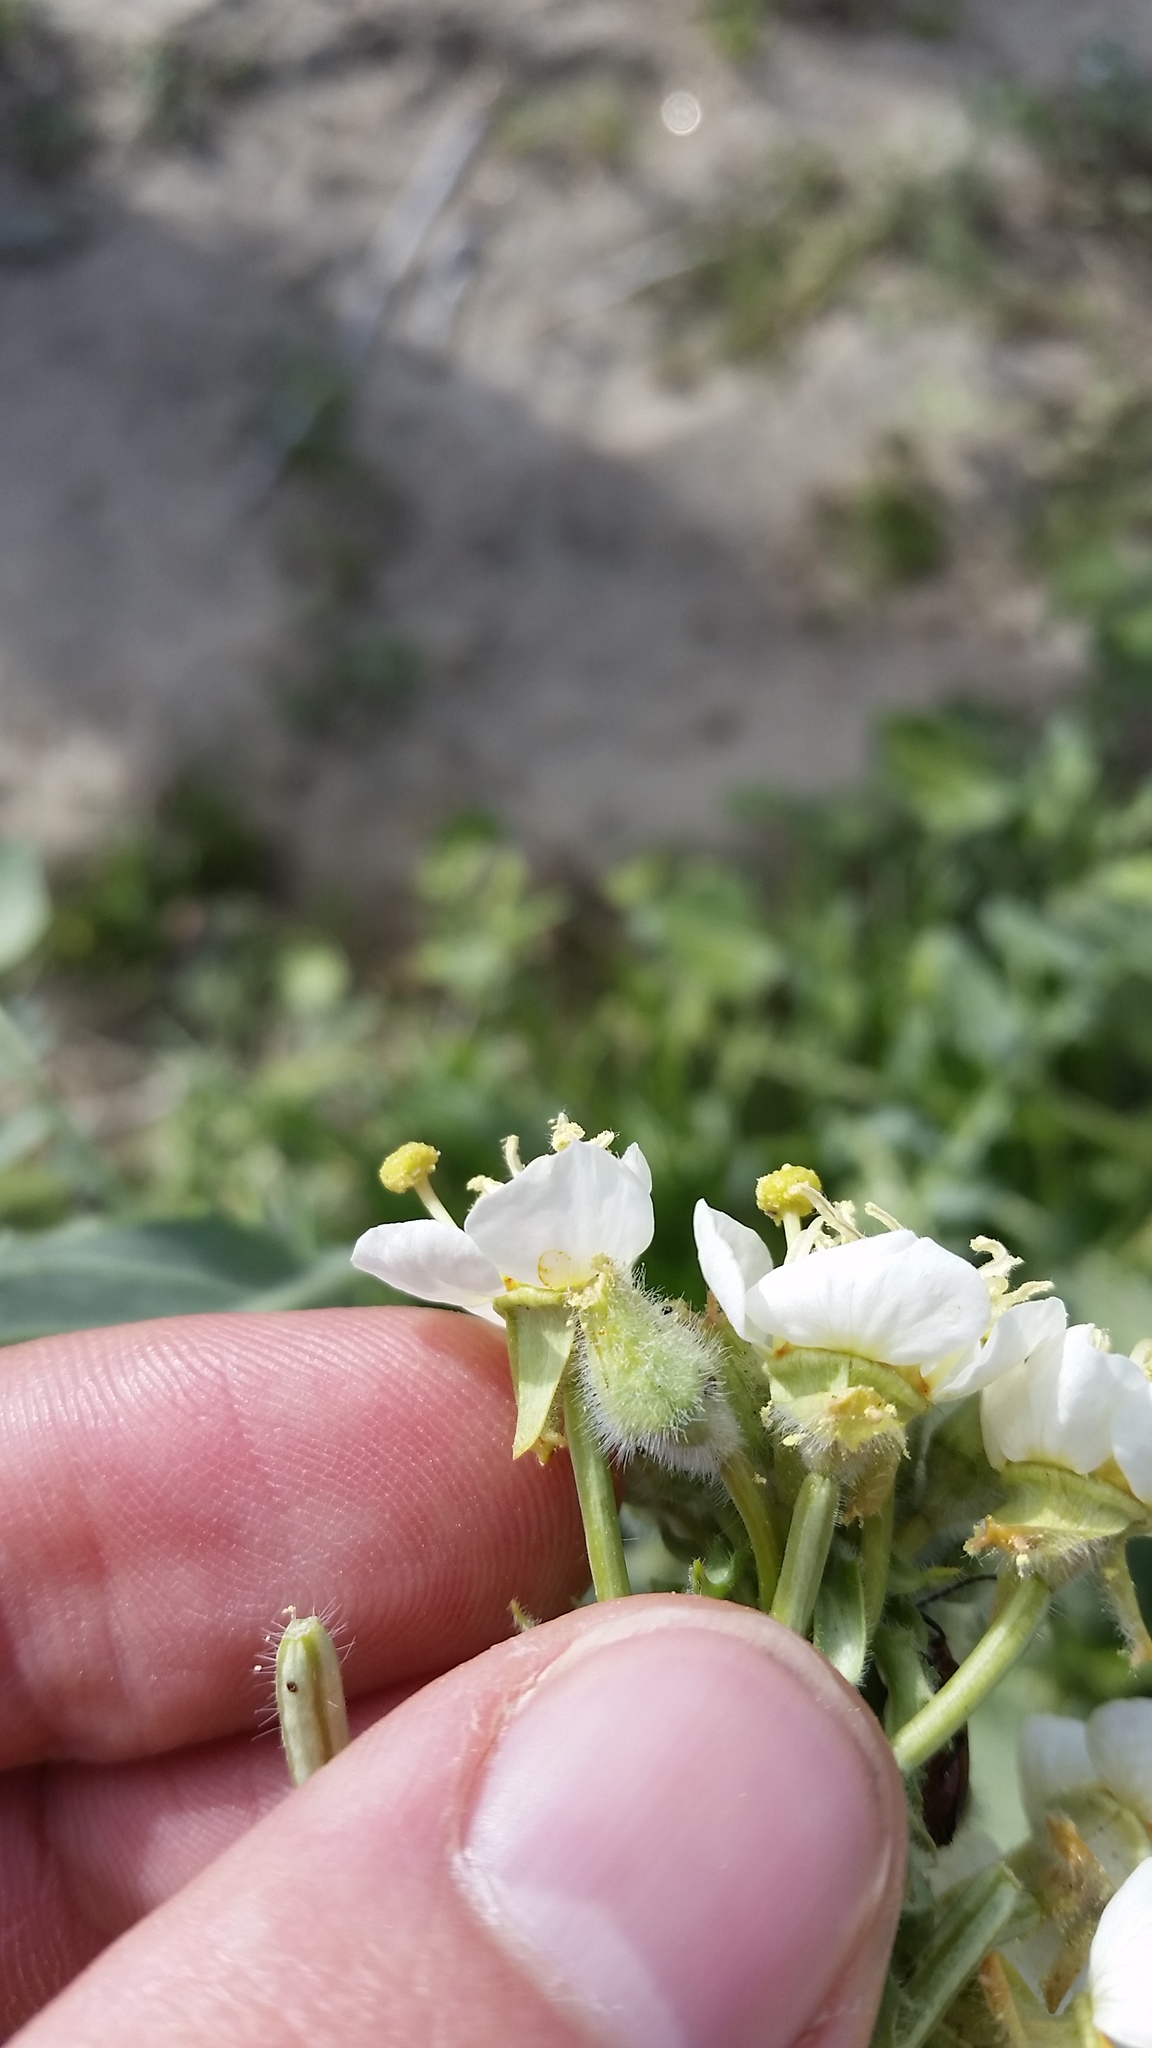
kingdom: Plantae
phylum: Tracheophyta
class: Magnoliopsida
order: Myrtales
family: Onagraceae
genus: Chylismia
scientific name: Chylismia claviformis
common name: Browneyes
